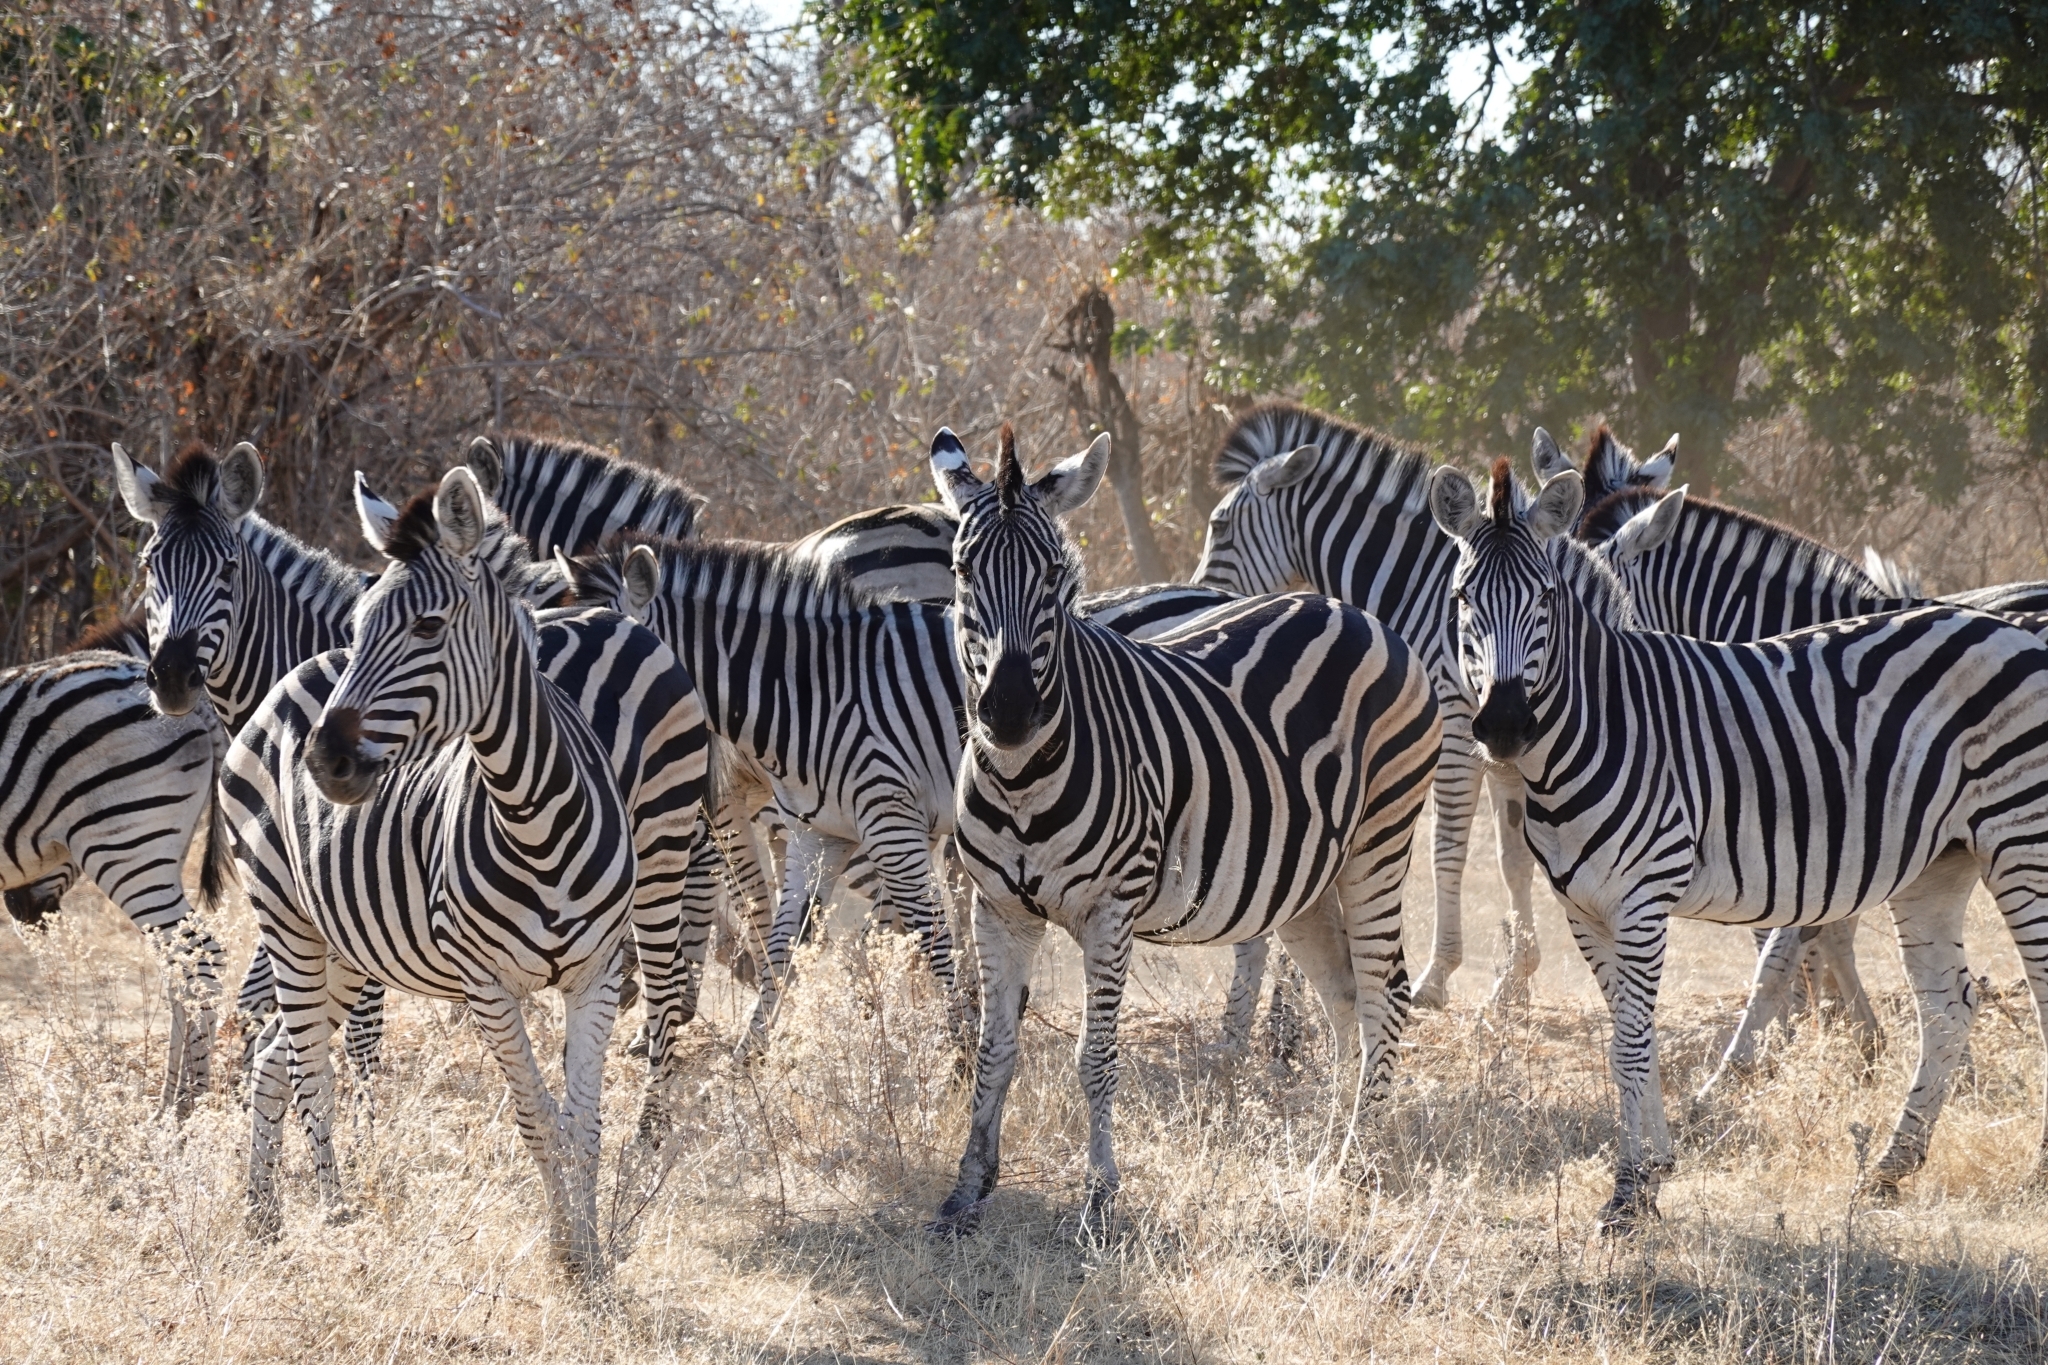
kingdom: Animalia
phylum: Chordata
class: Mammalia
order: Perissodactyla
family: Equidae
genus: Equus
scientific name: Equus quagga
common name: Plains zebra
